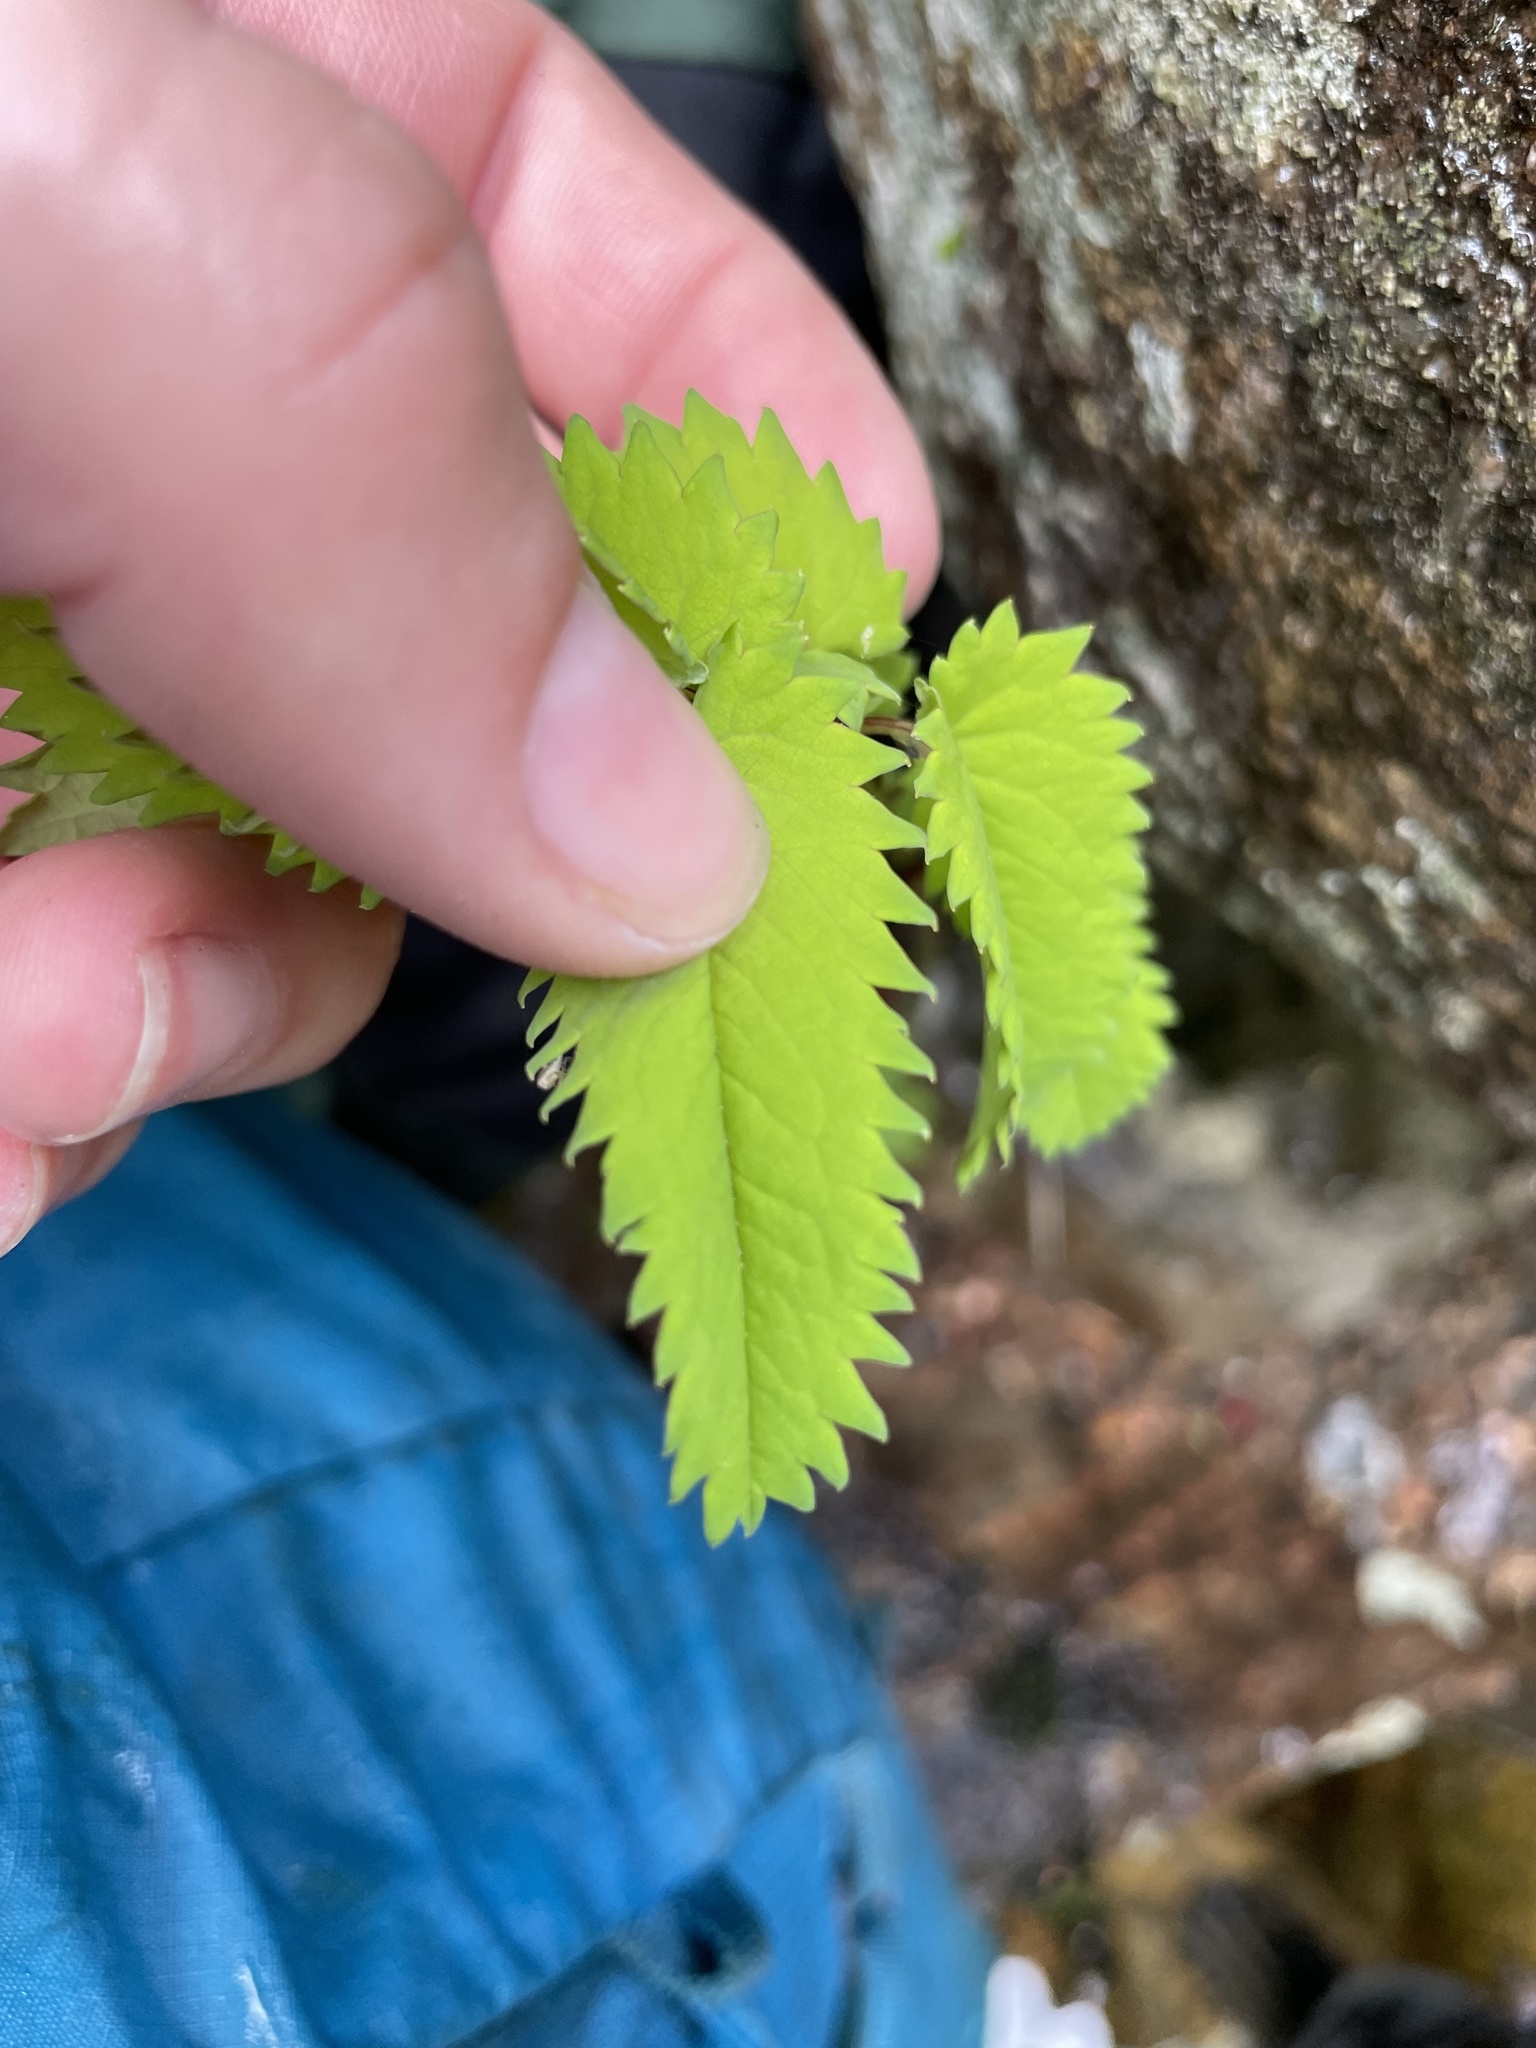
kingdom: Plantae
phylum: Tracheophyta
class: Magnoliopsida
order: Rosales
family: Rosaceae
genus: Sanguisorba
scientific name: Sanguisorba canadensis
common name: White burnet
